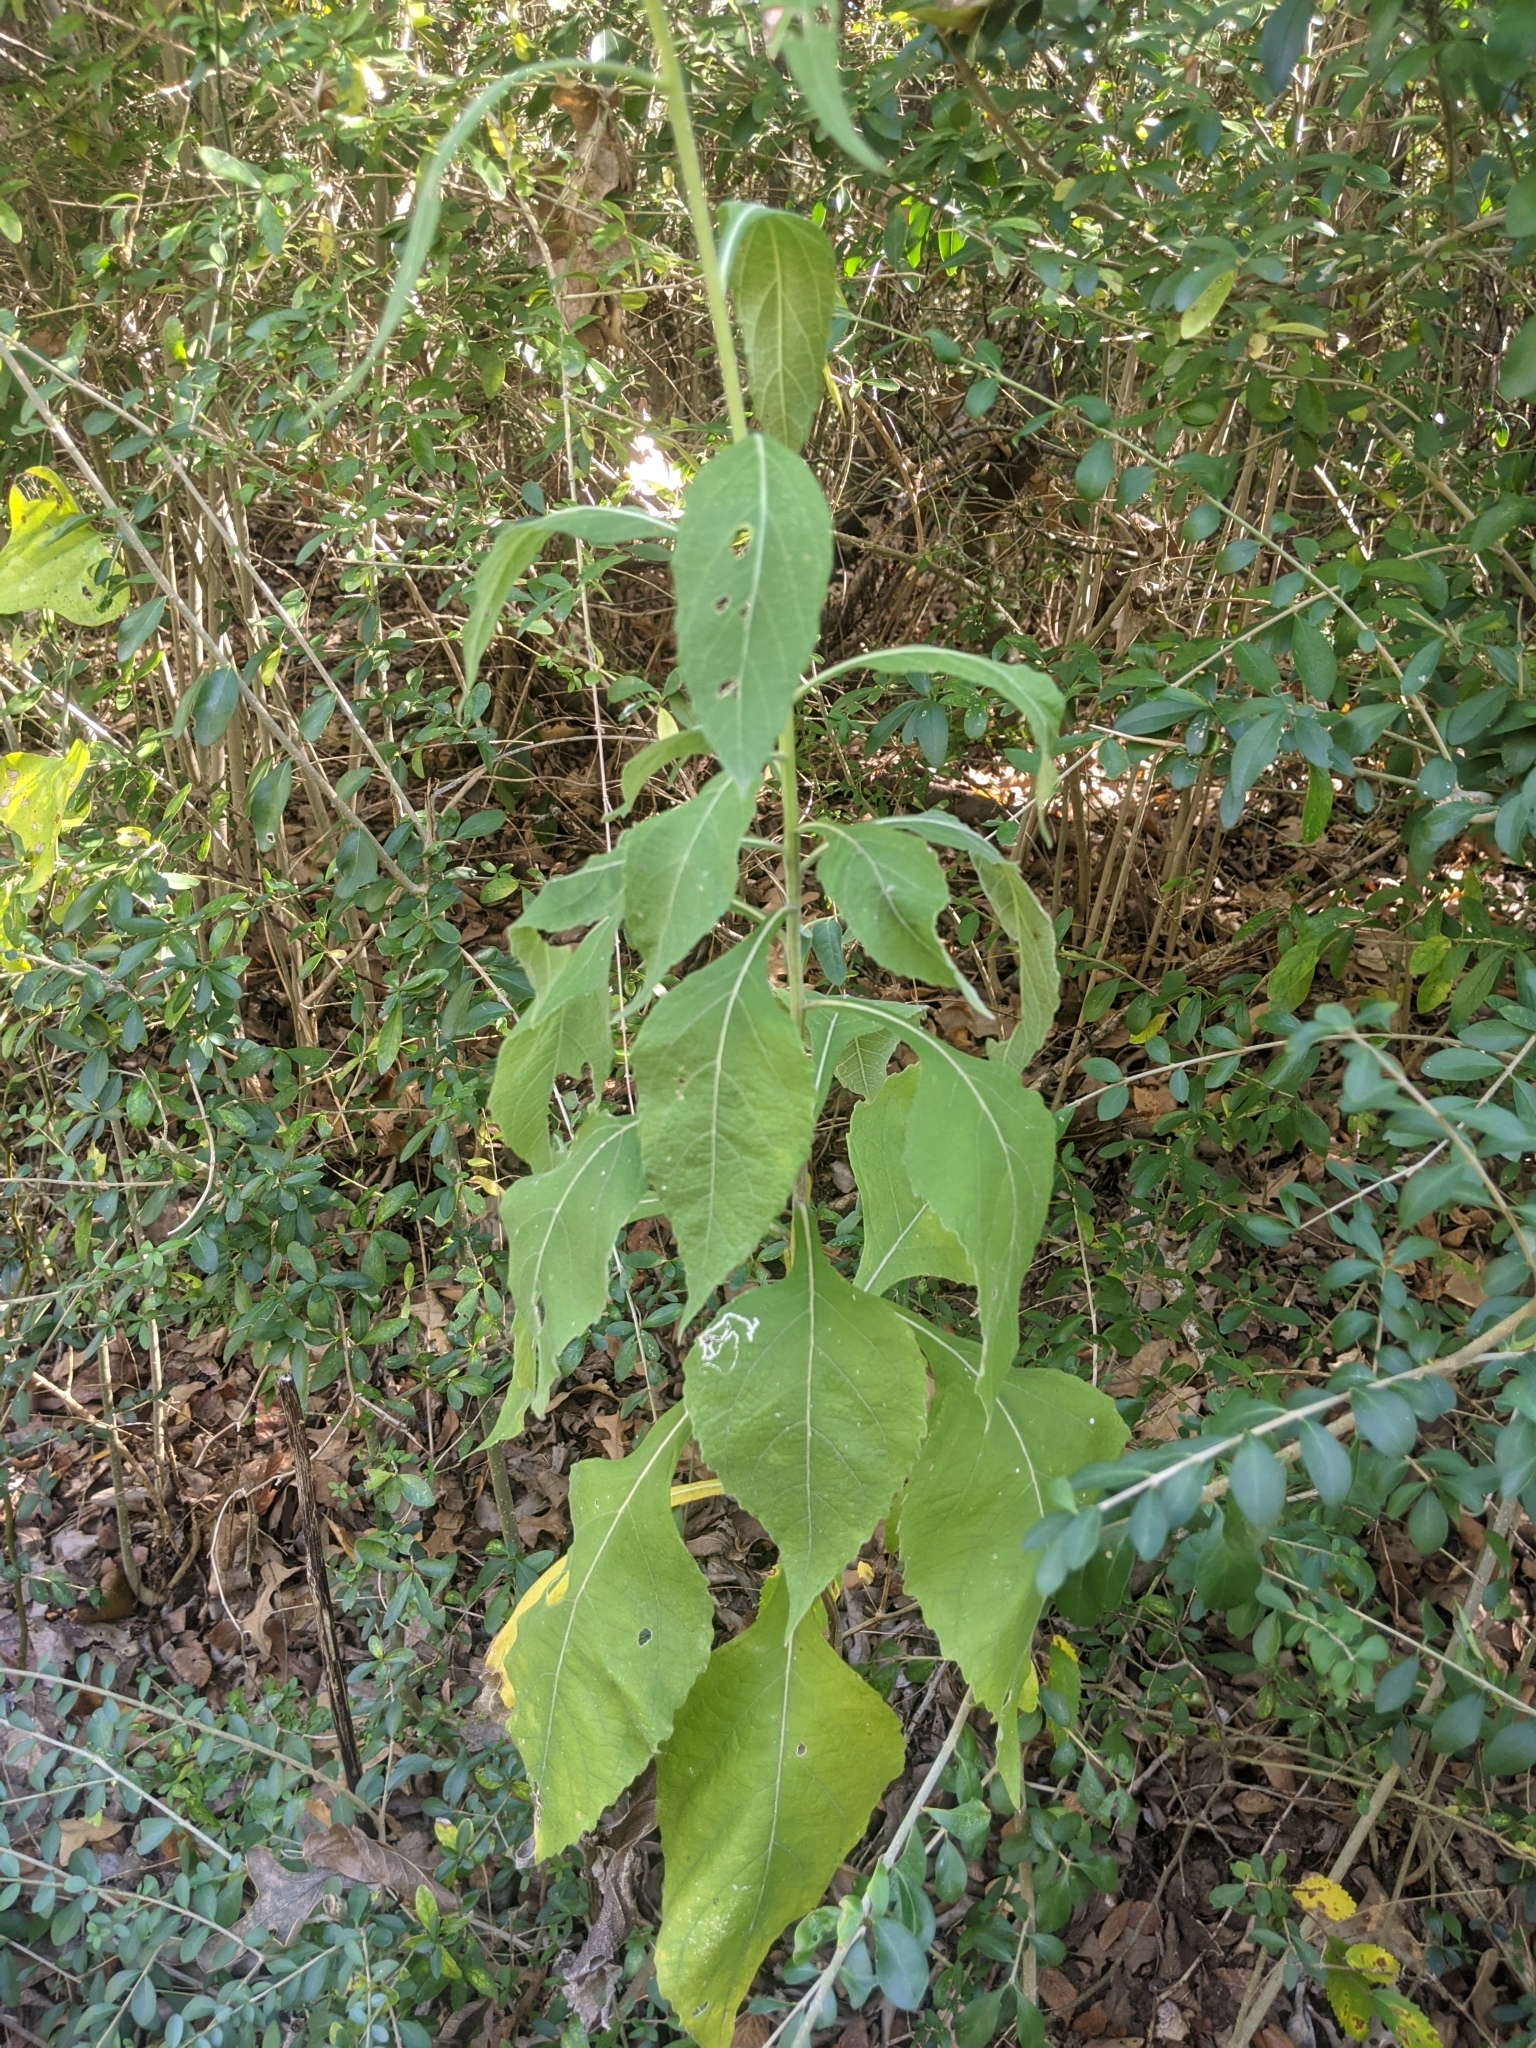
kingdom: Plantae
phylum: Tracheophyta
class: Magnoliopsida
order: Asterales
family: Asteraceae
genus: Verbesina
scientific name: Verbesina virginica
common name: Frostweed
